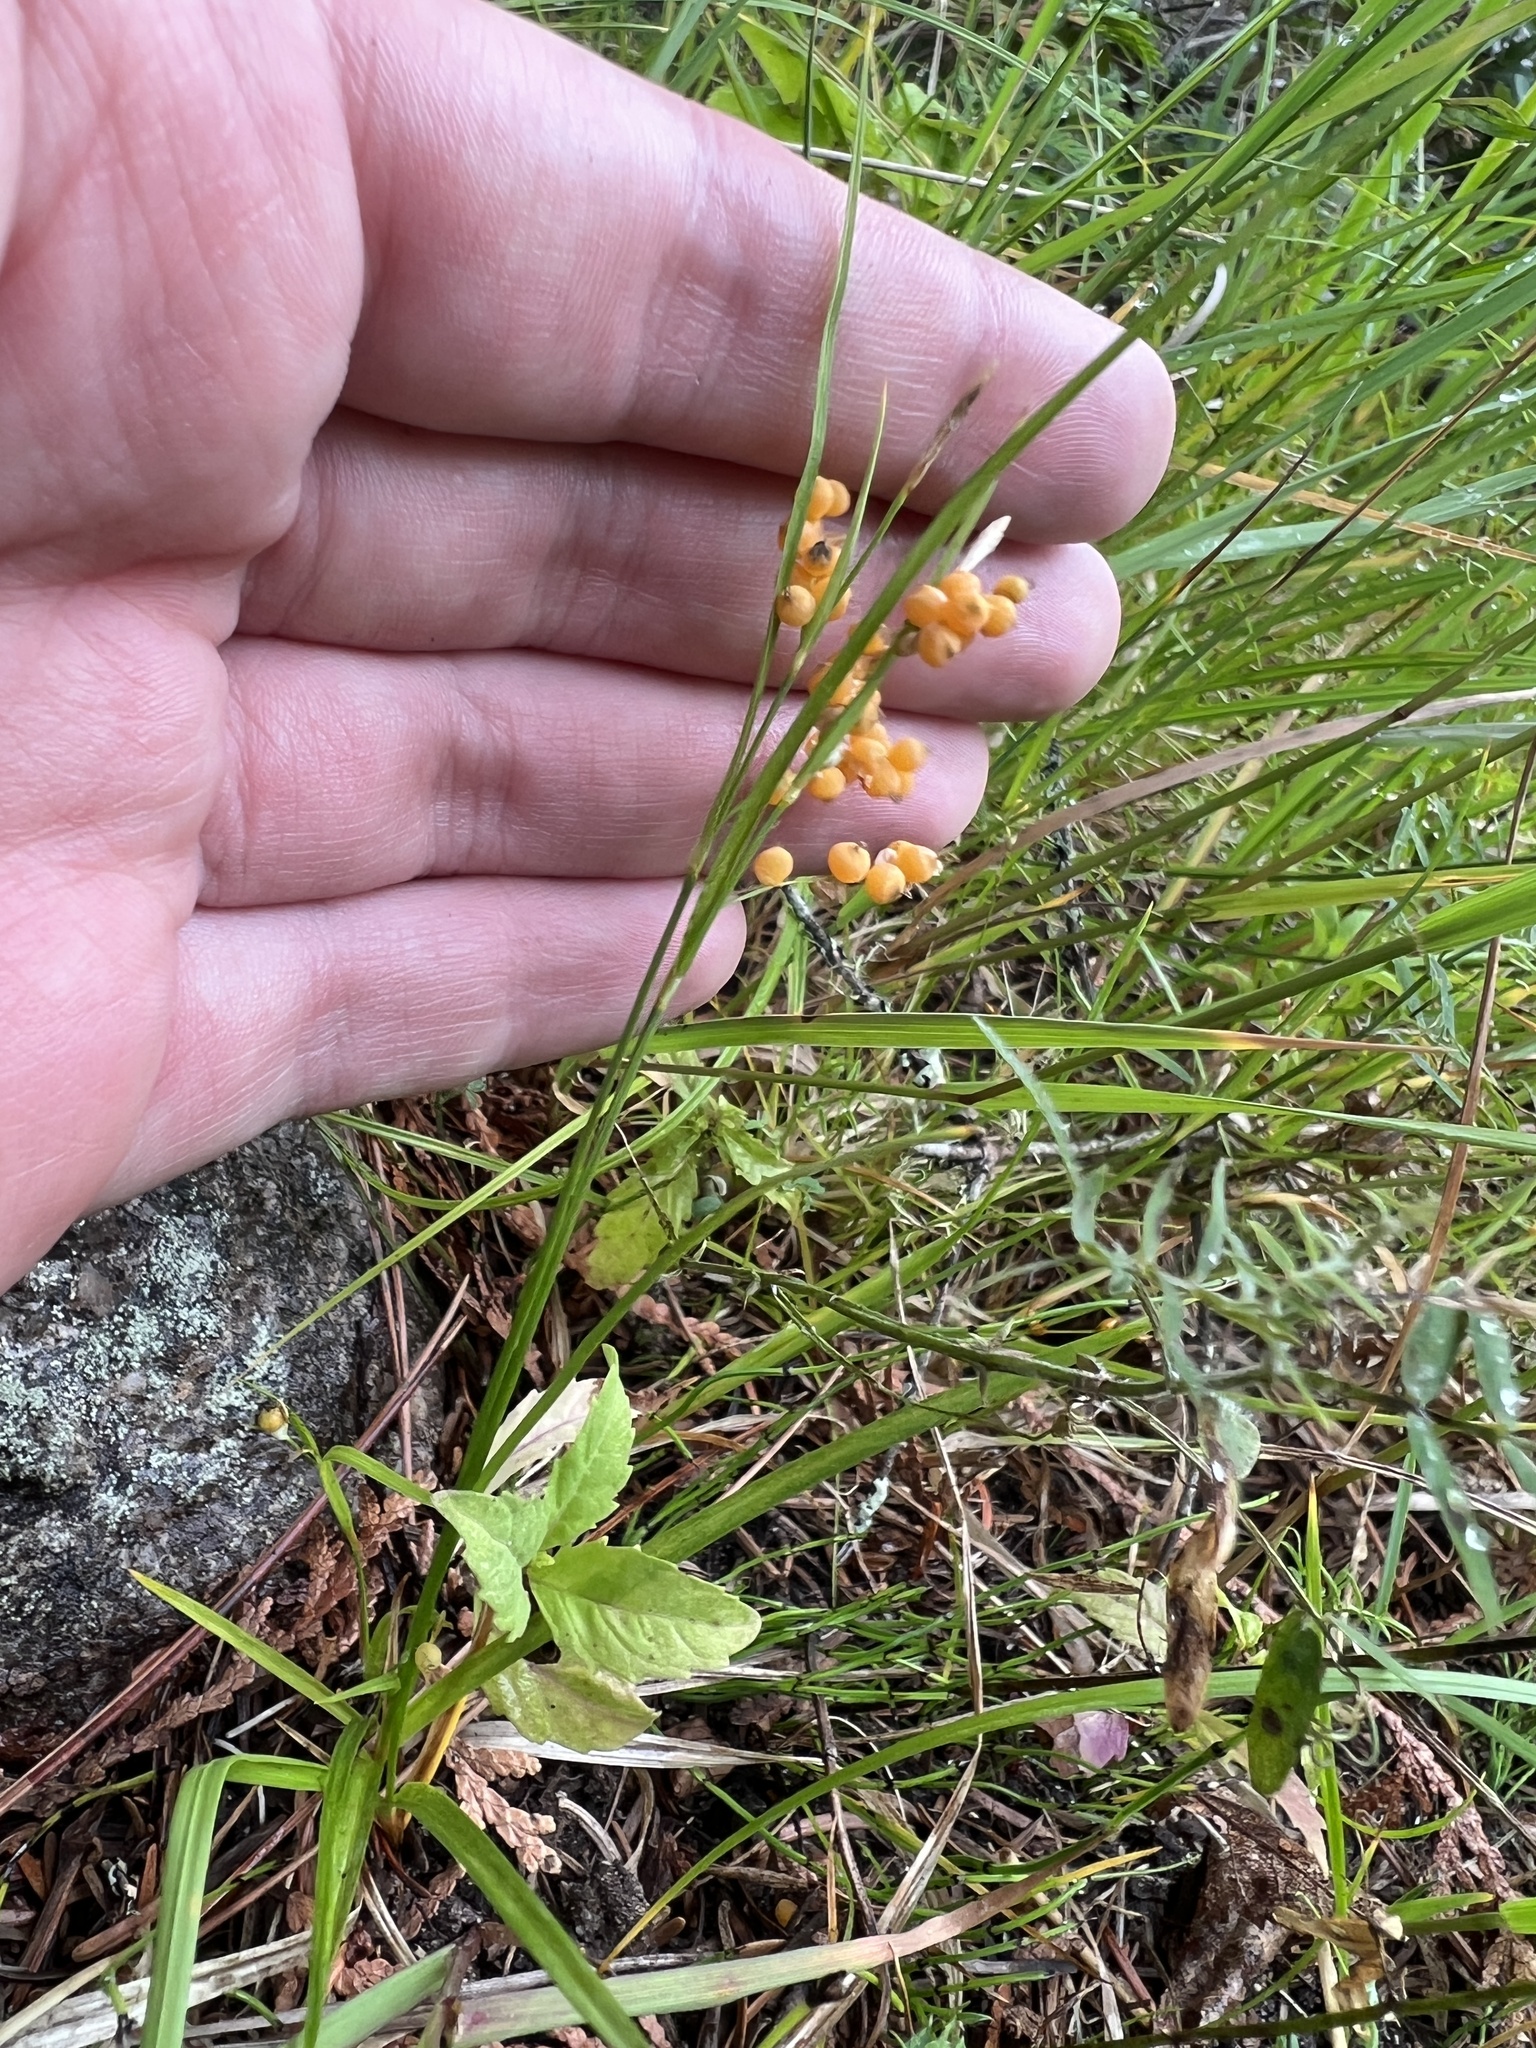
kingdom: Plantae
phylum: Tracheophyta
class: Liliopsida
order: Poales
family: Cyperaceae
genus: Carex
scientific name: Carex aurea
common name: Golden sedge
